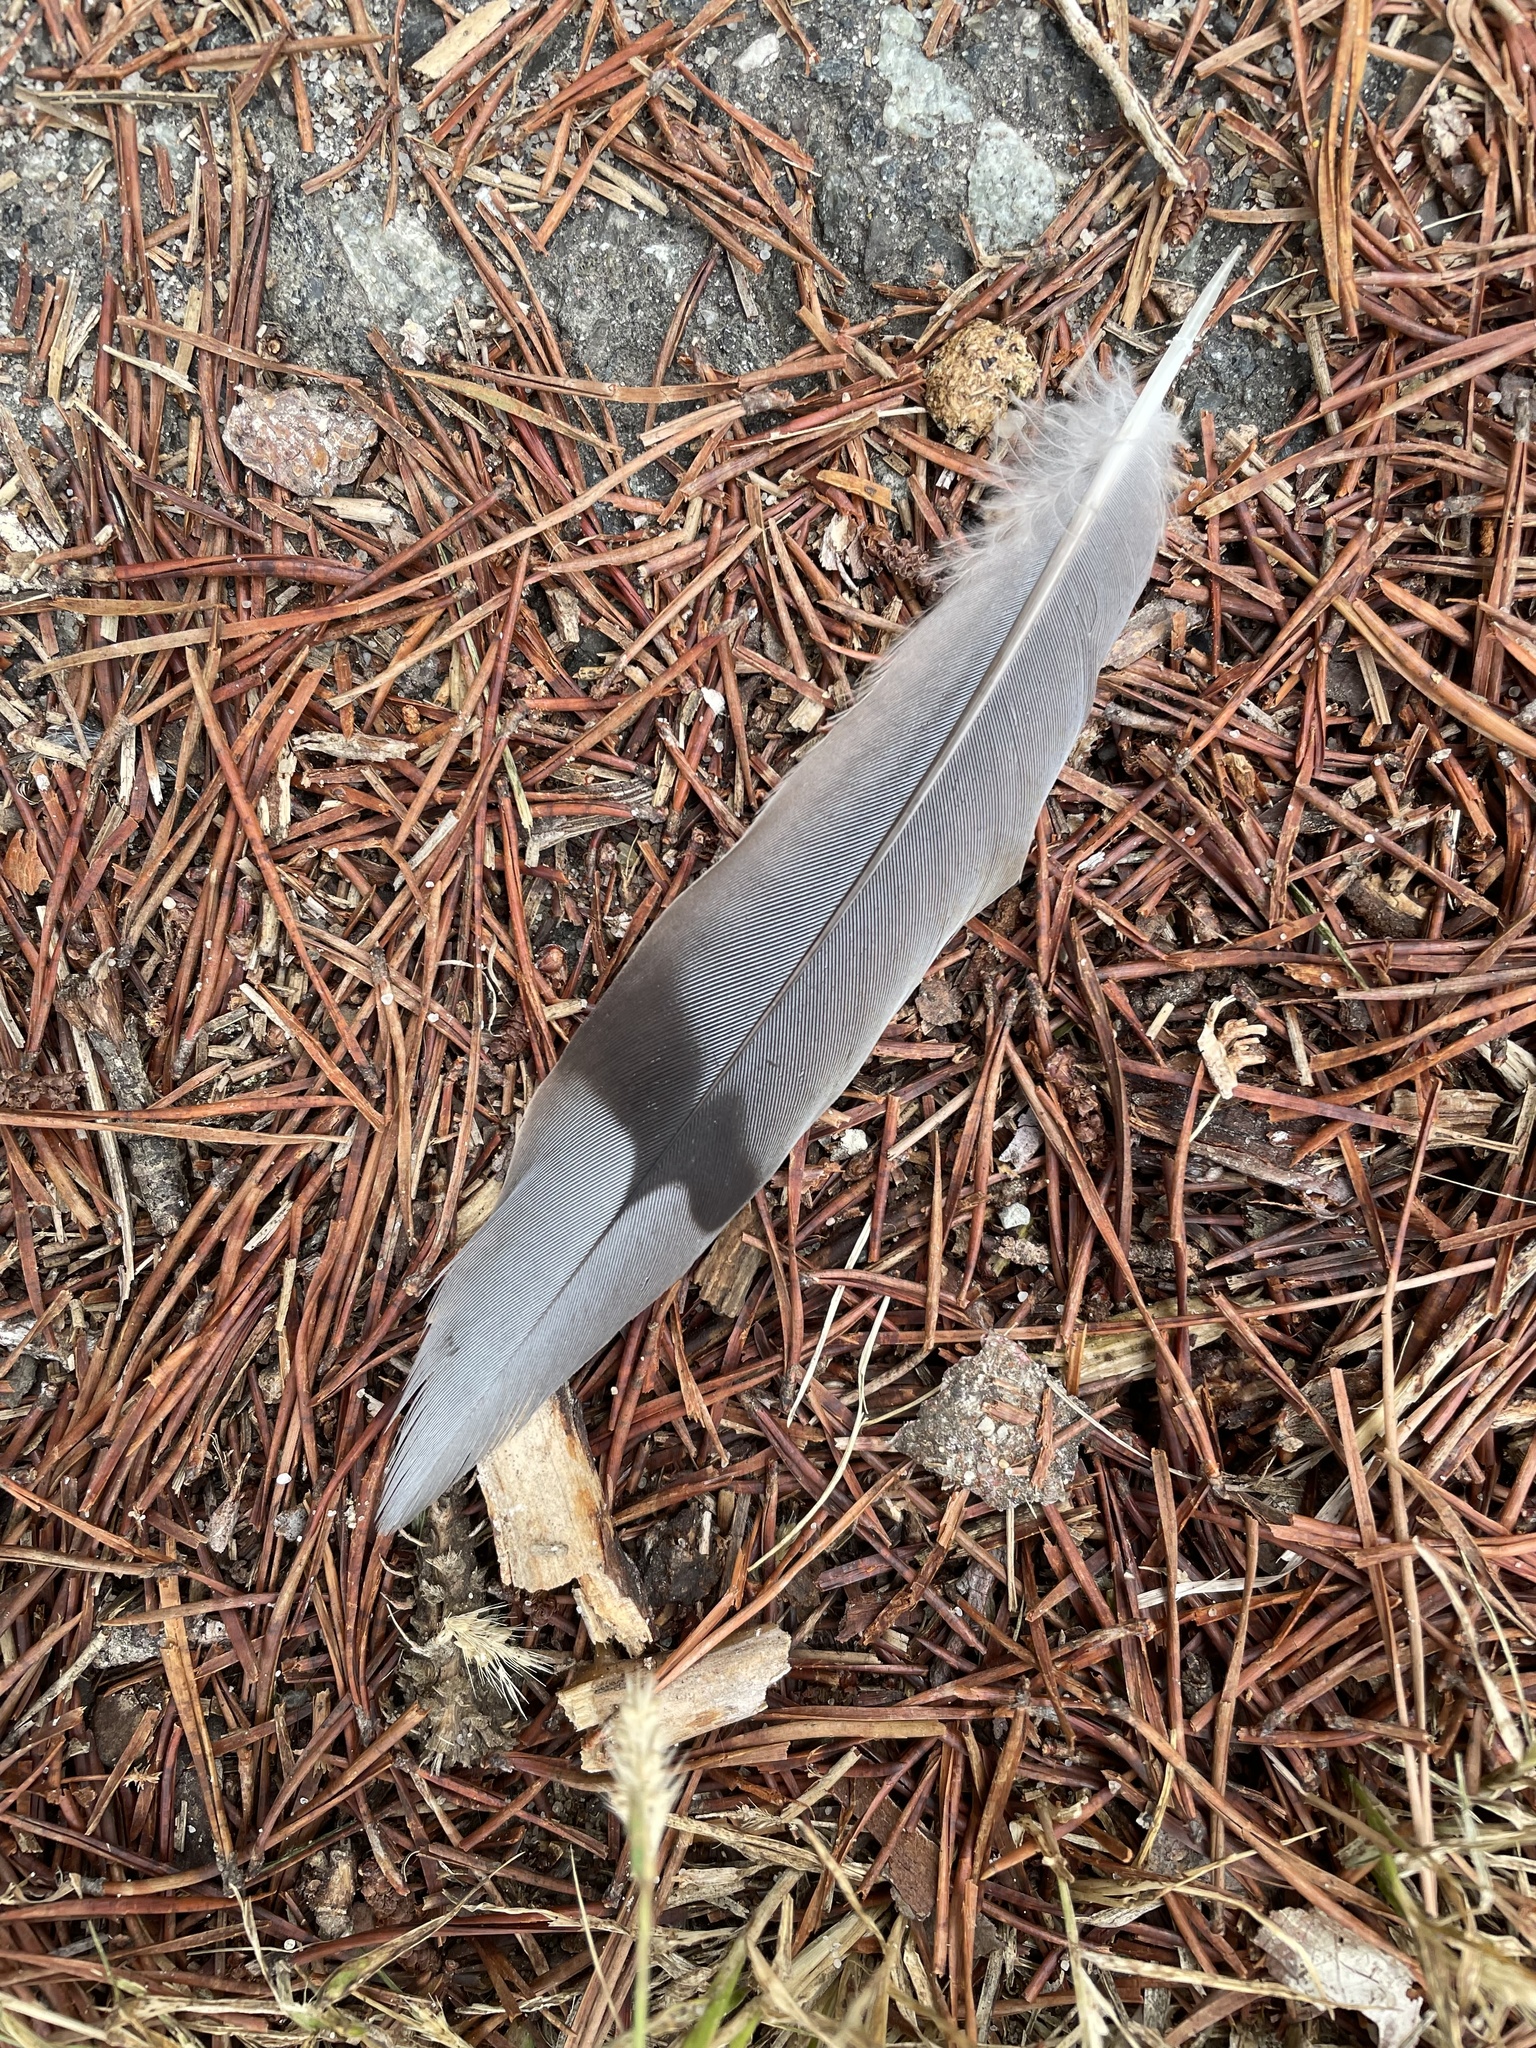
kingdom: Animalia
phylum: Chordata
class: Aves
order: Columbiformes
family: Columbidae
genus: Zenaida
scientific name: Zenaida macroura
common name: Mourning dove
